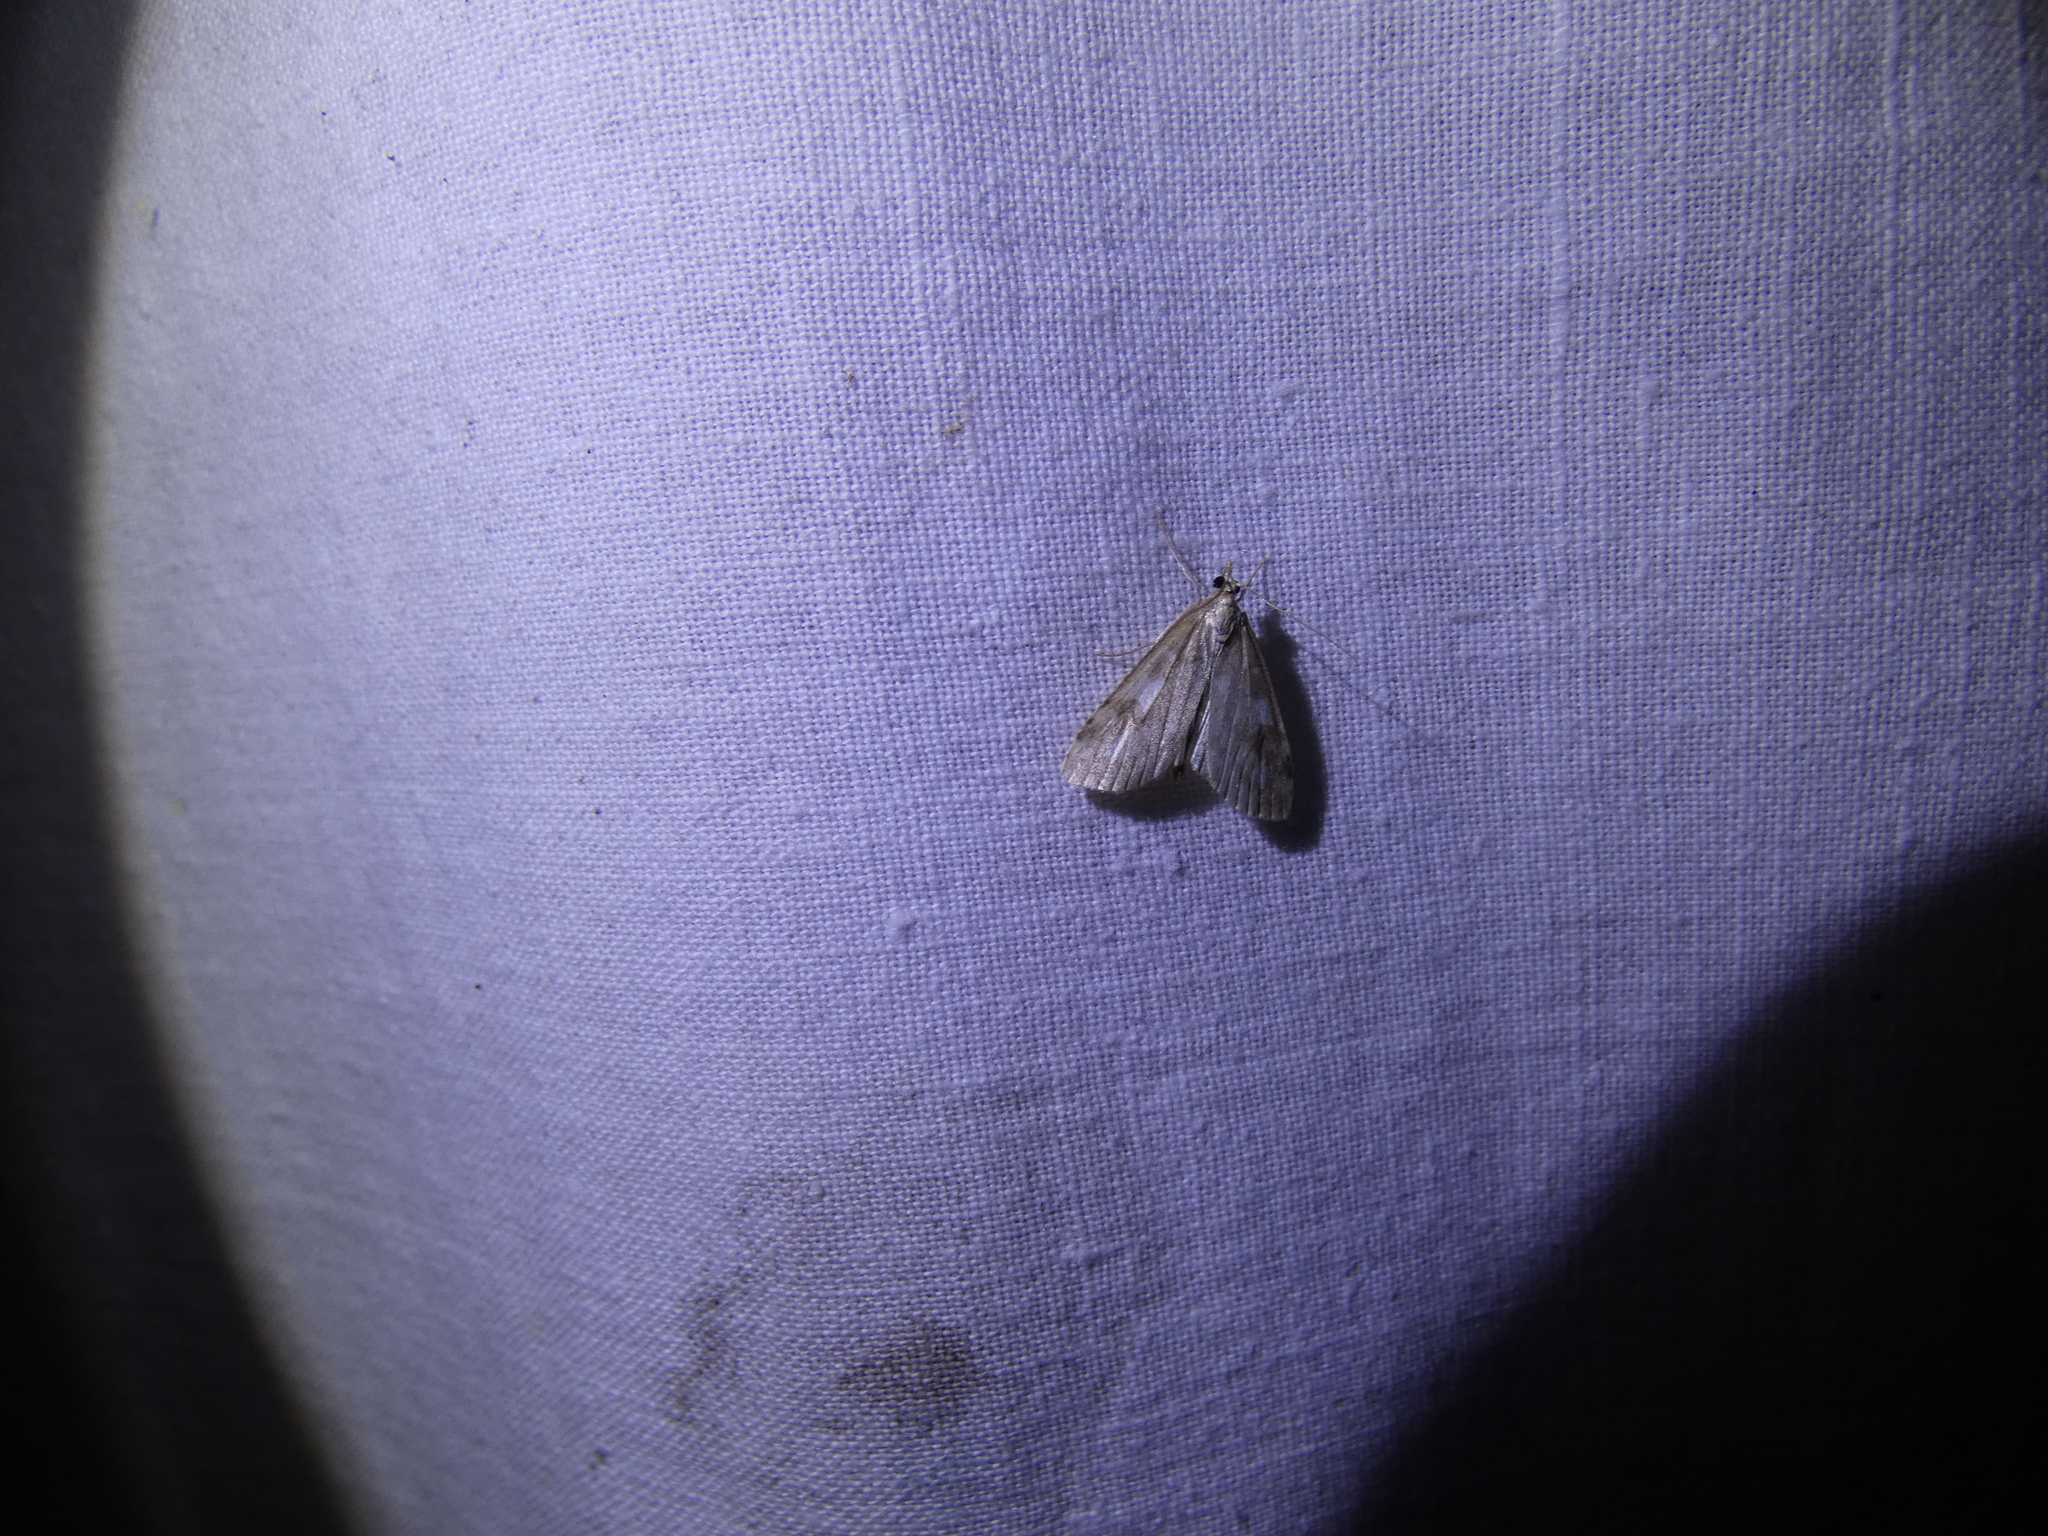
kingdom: Animalia
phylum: Arthropoda
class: Insecta
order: Lepidoptera
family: Crambidae
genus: Udea
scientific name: Udea olivalis
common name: Olive pearl
